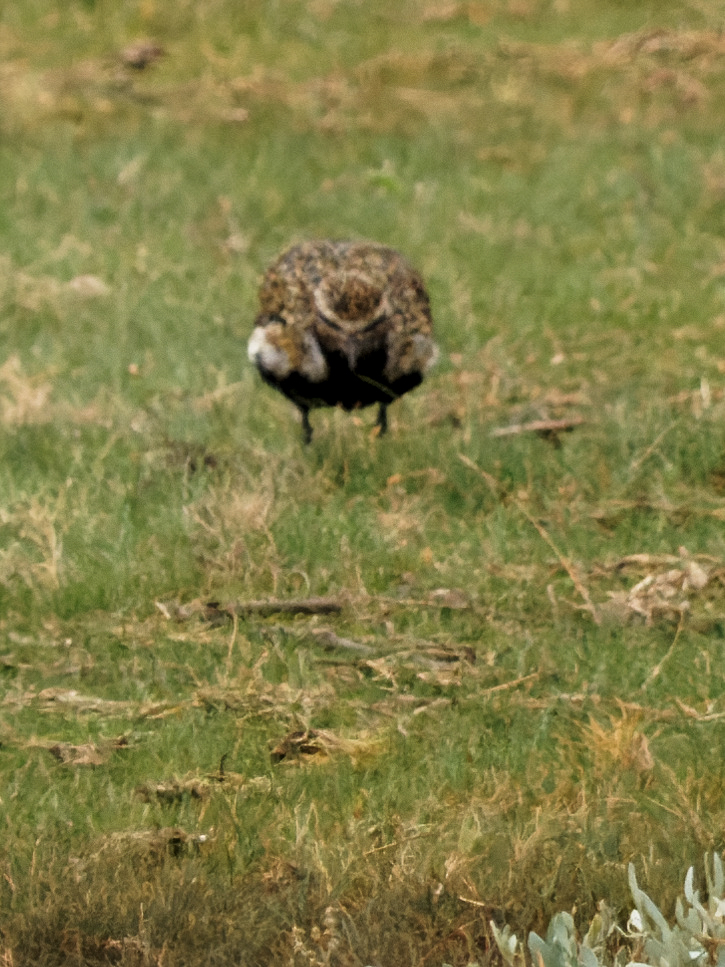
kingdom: Animalia
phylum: Chordata
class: Aves
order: Charadriiformes
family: Charadriidae
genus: Pluvialis
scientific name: Pluvialis apricaria
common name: European golden plover
